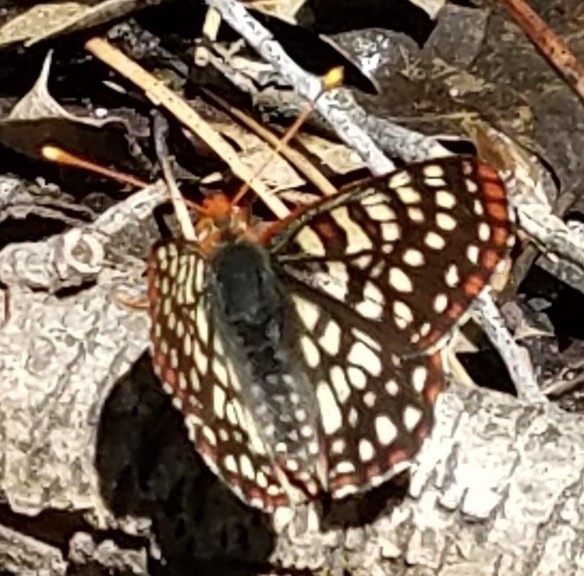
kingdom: Animalia
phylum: Arthropoda
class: Insecta
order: Lepidoptera
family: Nymphalidae
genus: Occidryas
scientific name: Occidryas chalcedona
